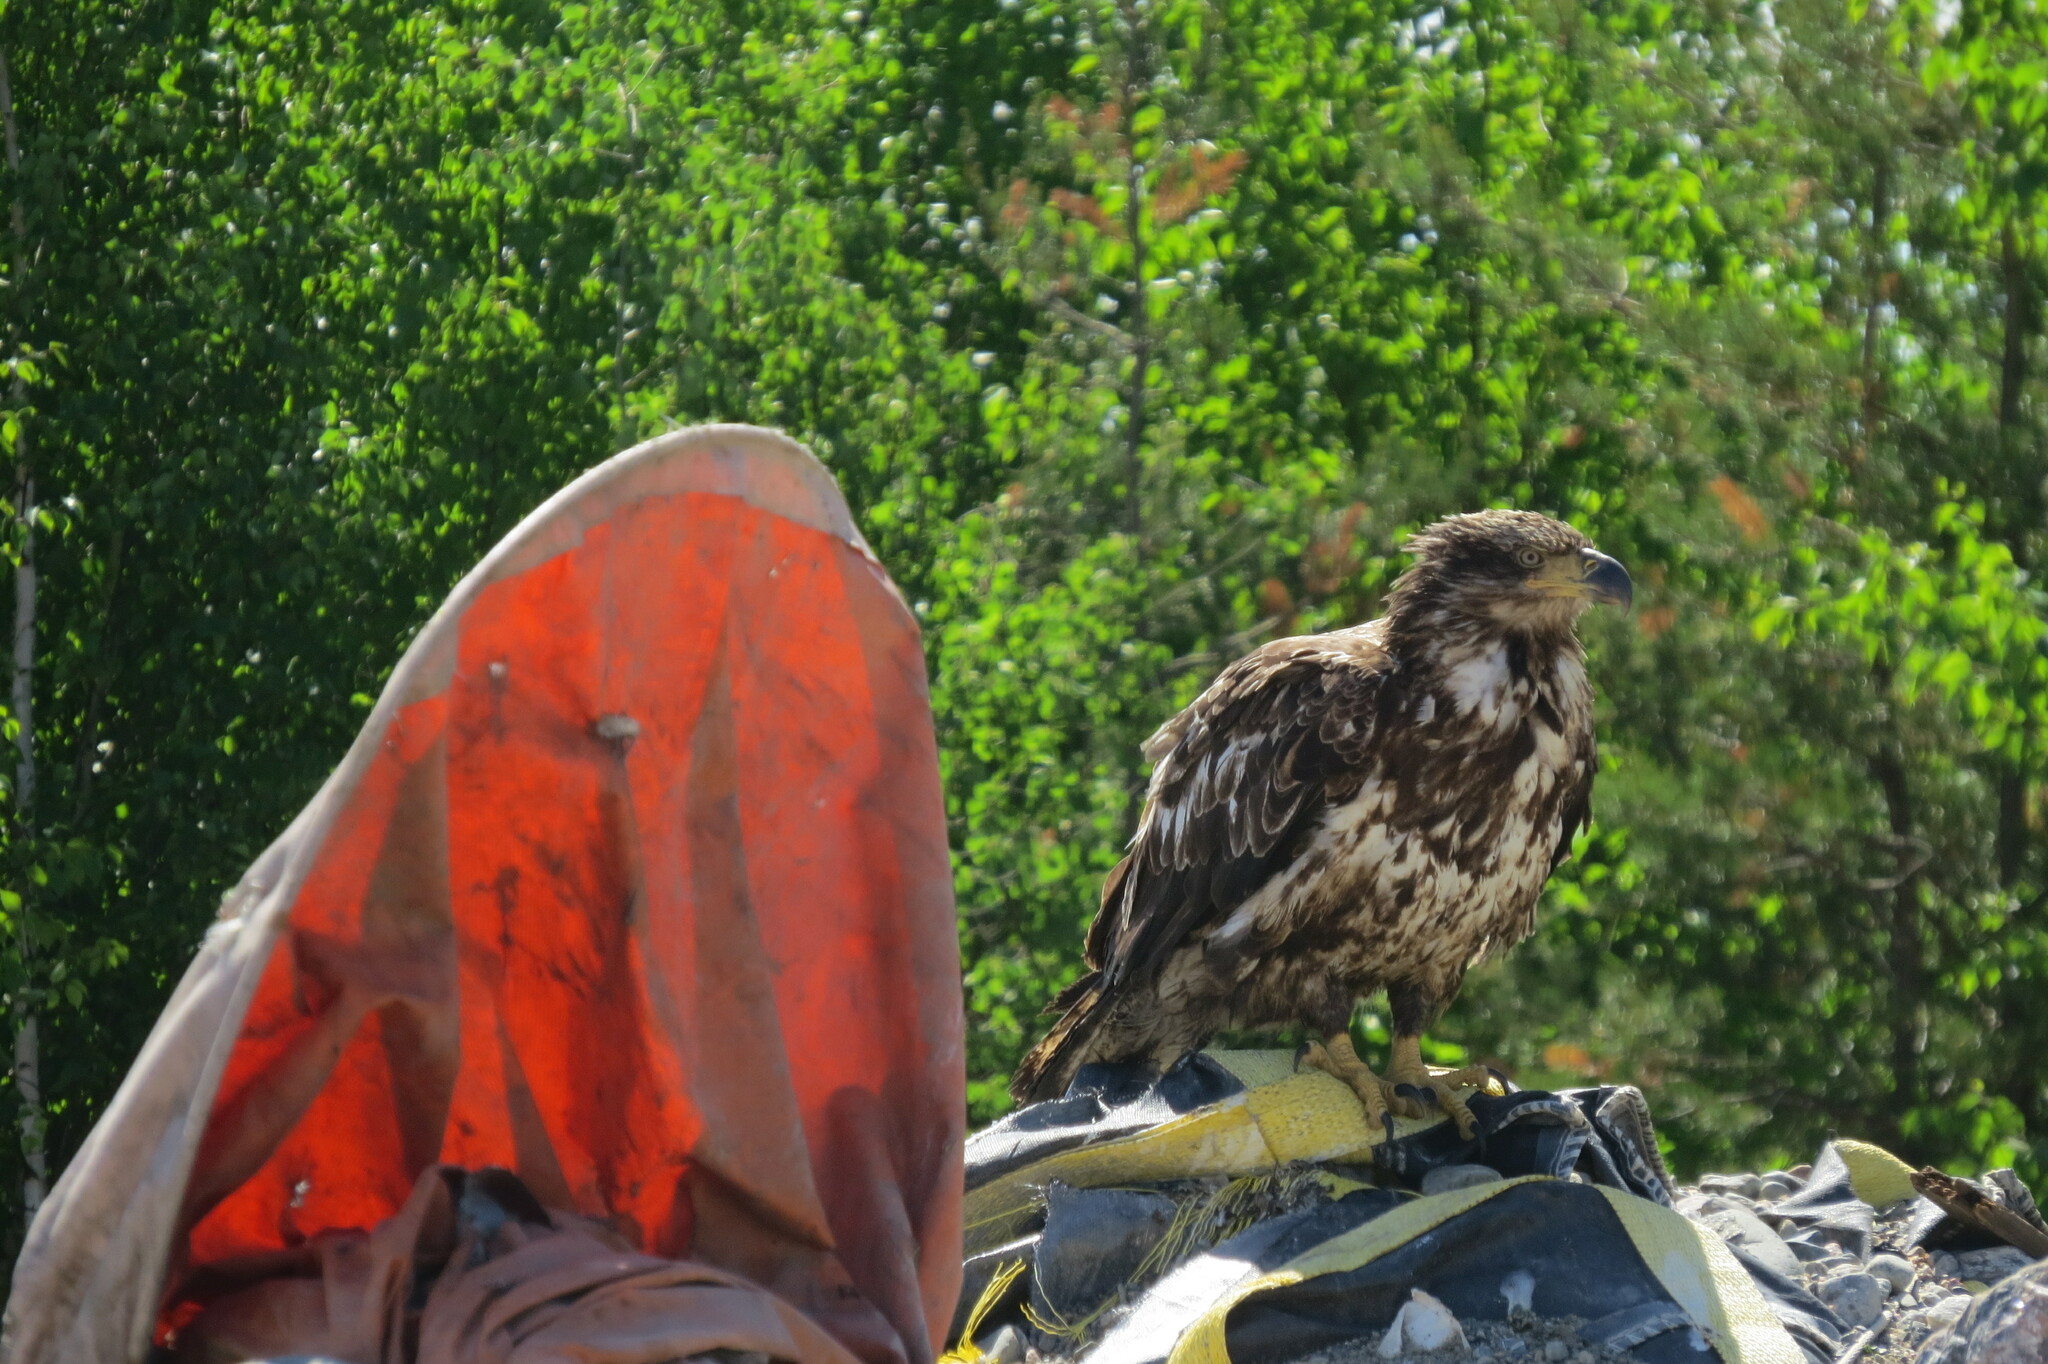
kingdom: Animalia
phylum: Chordata
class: Aves
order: Accipitriformes
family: Accipitridae
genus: Haliaeetus
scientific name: Haliaeetus leucocephalus
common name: Bald eagle
